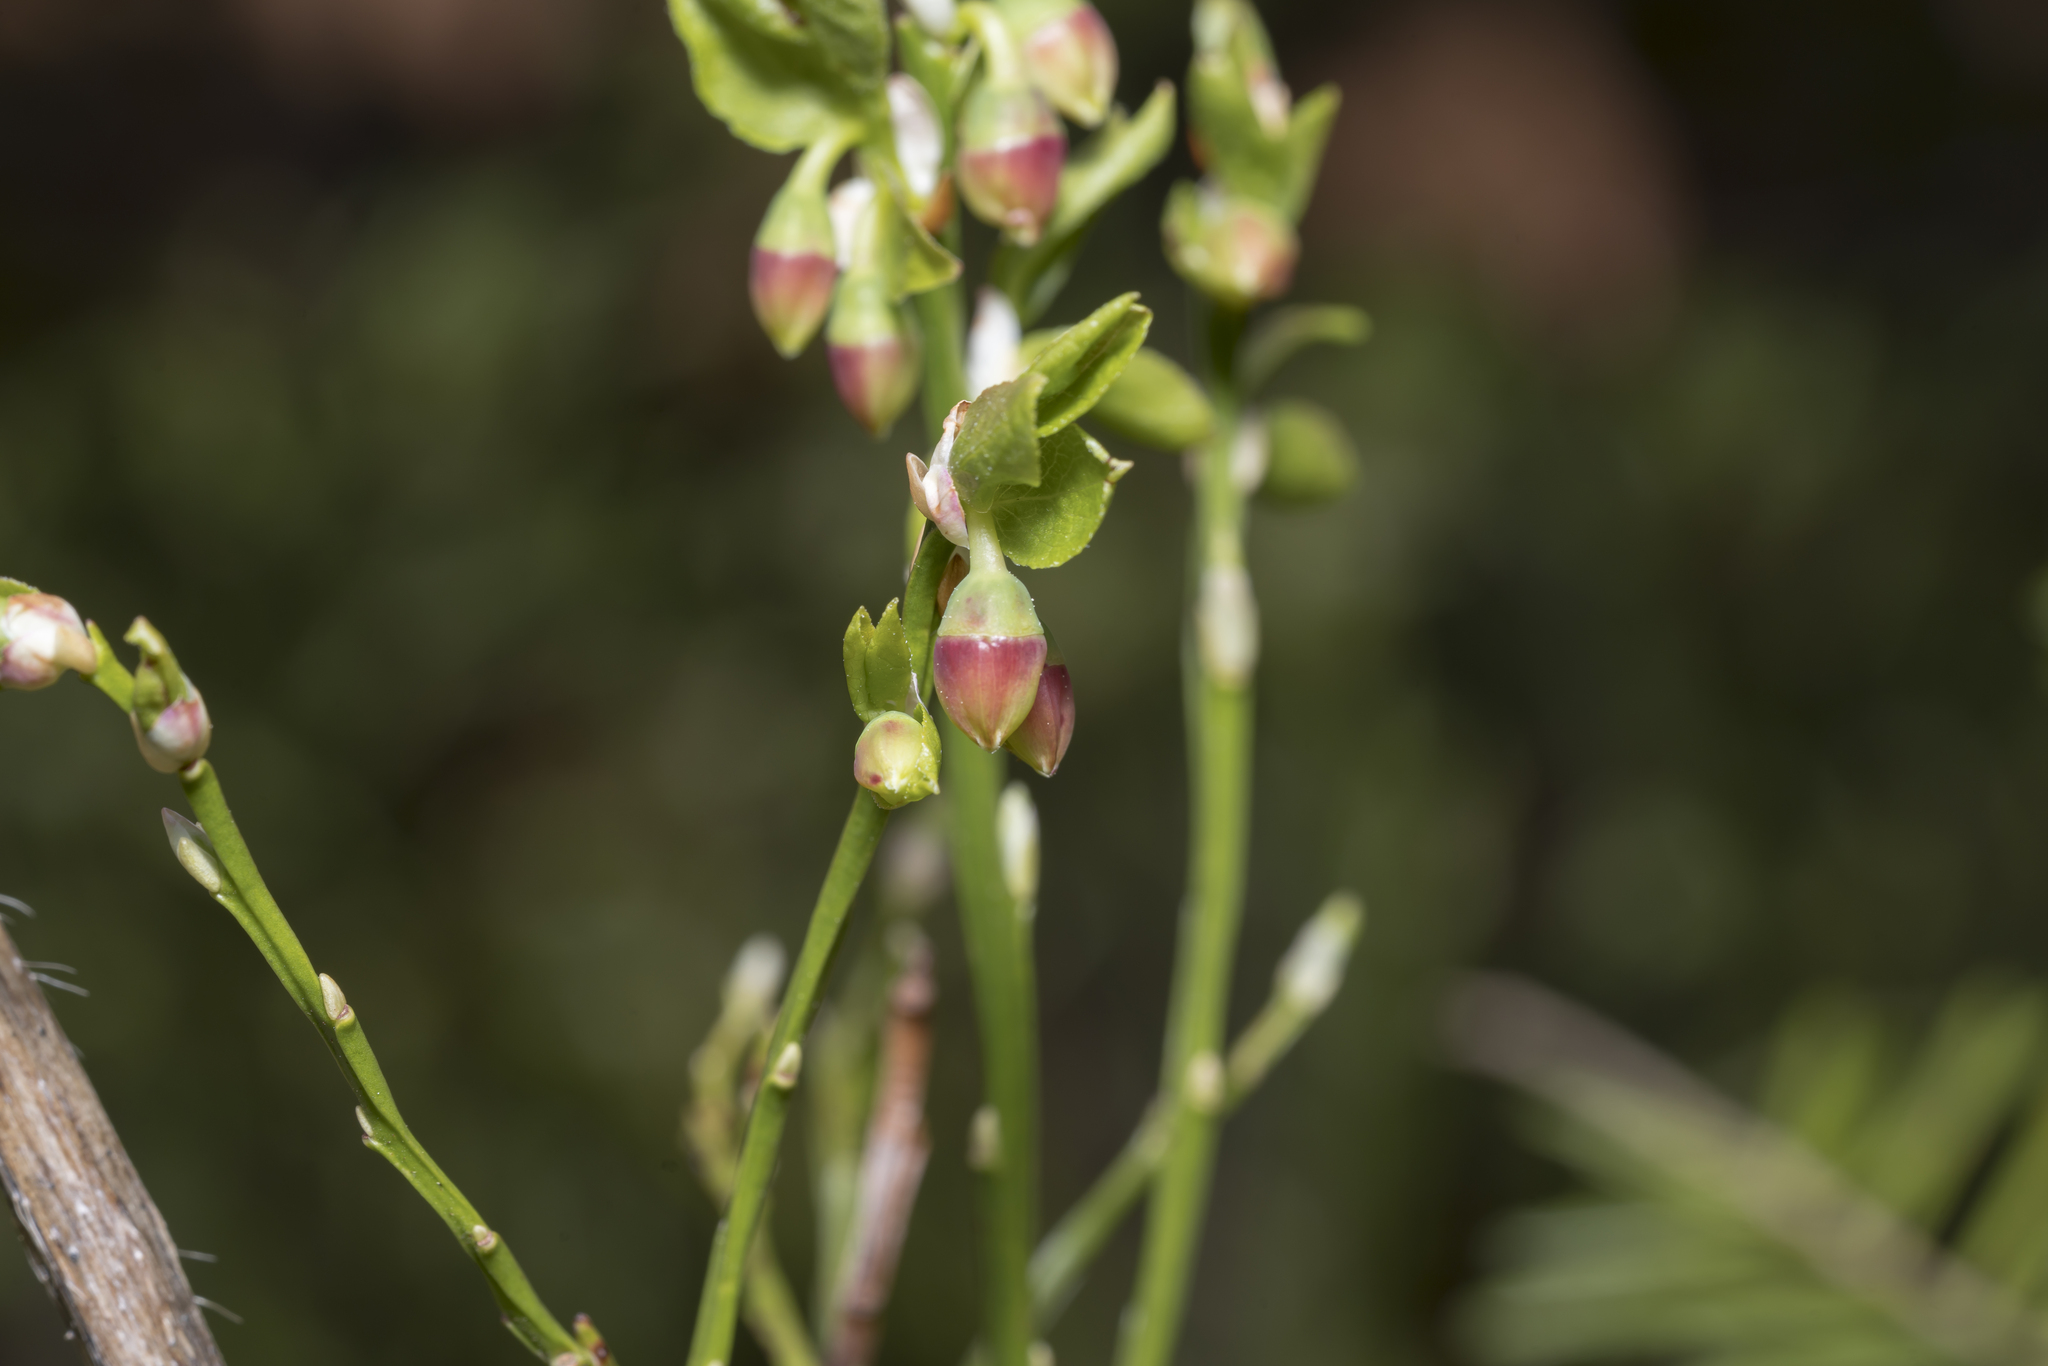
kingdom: Plantae
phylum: Tracheophyta
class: Magnoliopsida
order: Ericales
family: Ericaceae
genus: Vaccinium
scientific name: Vaccinium myrtillus
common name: Bilberry
